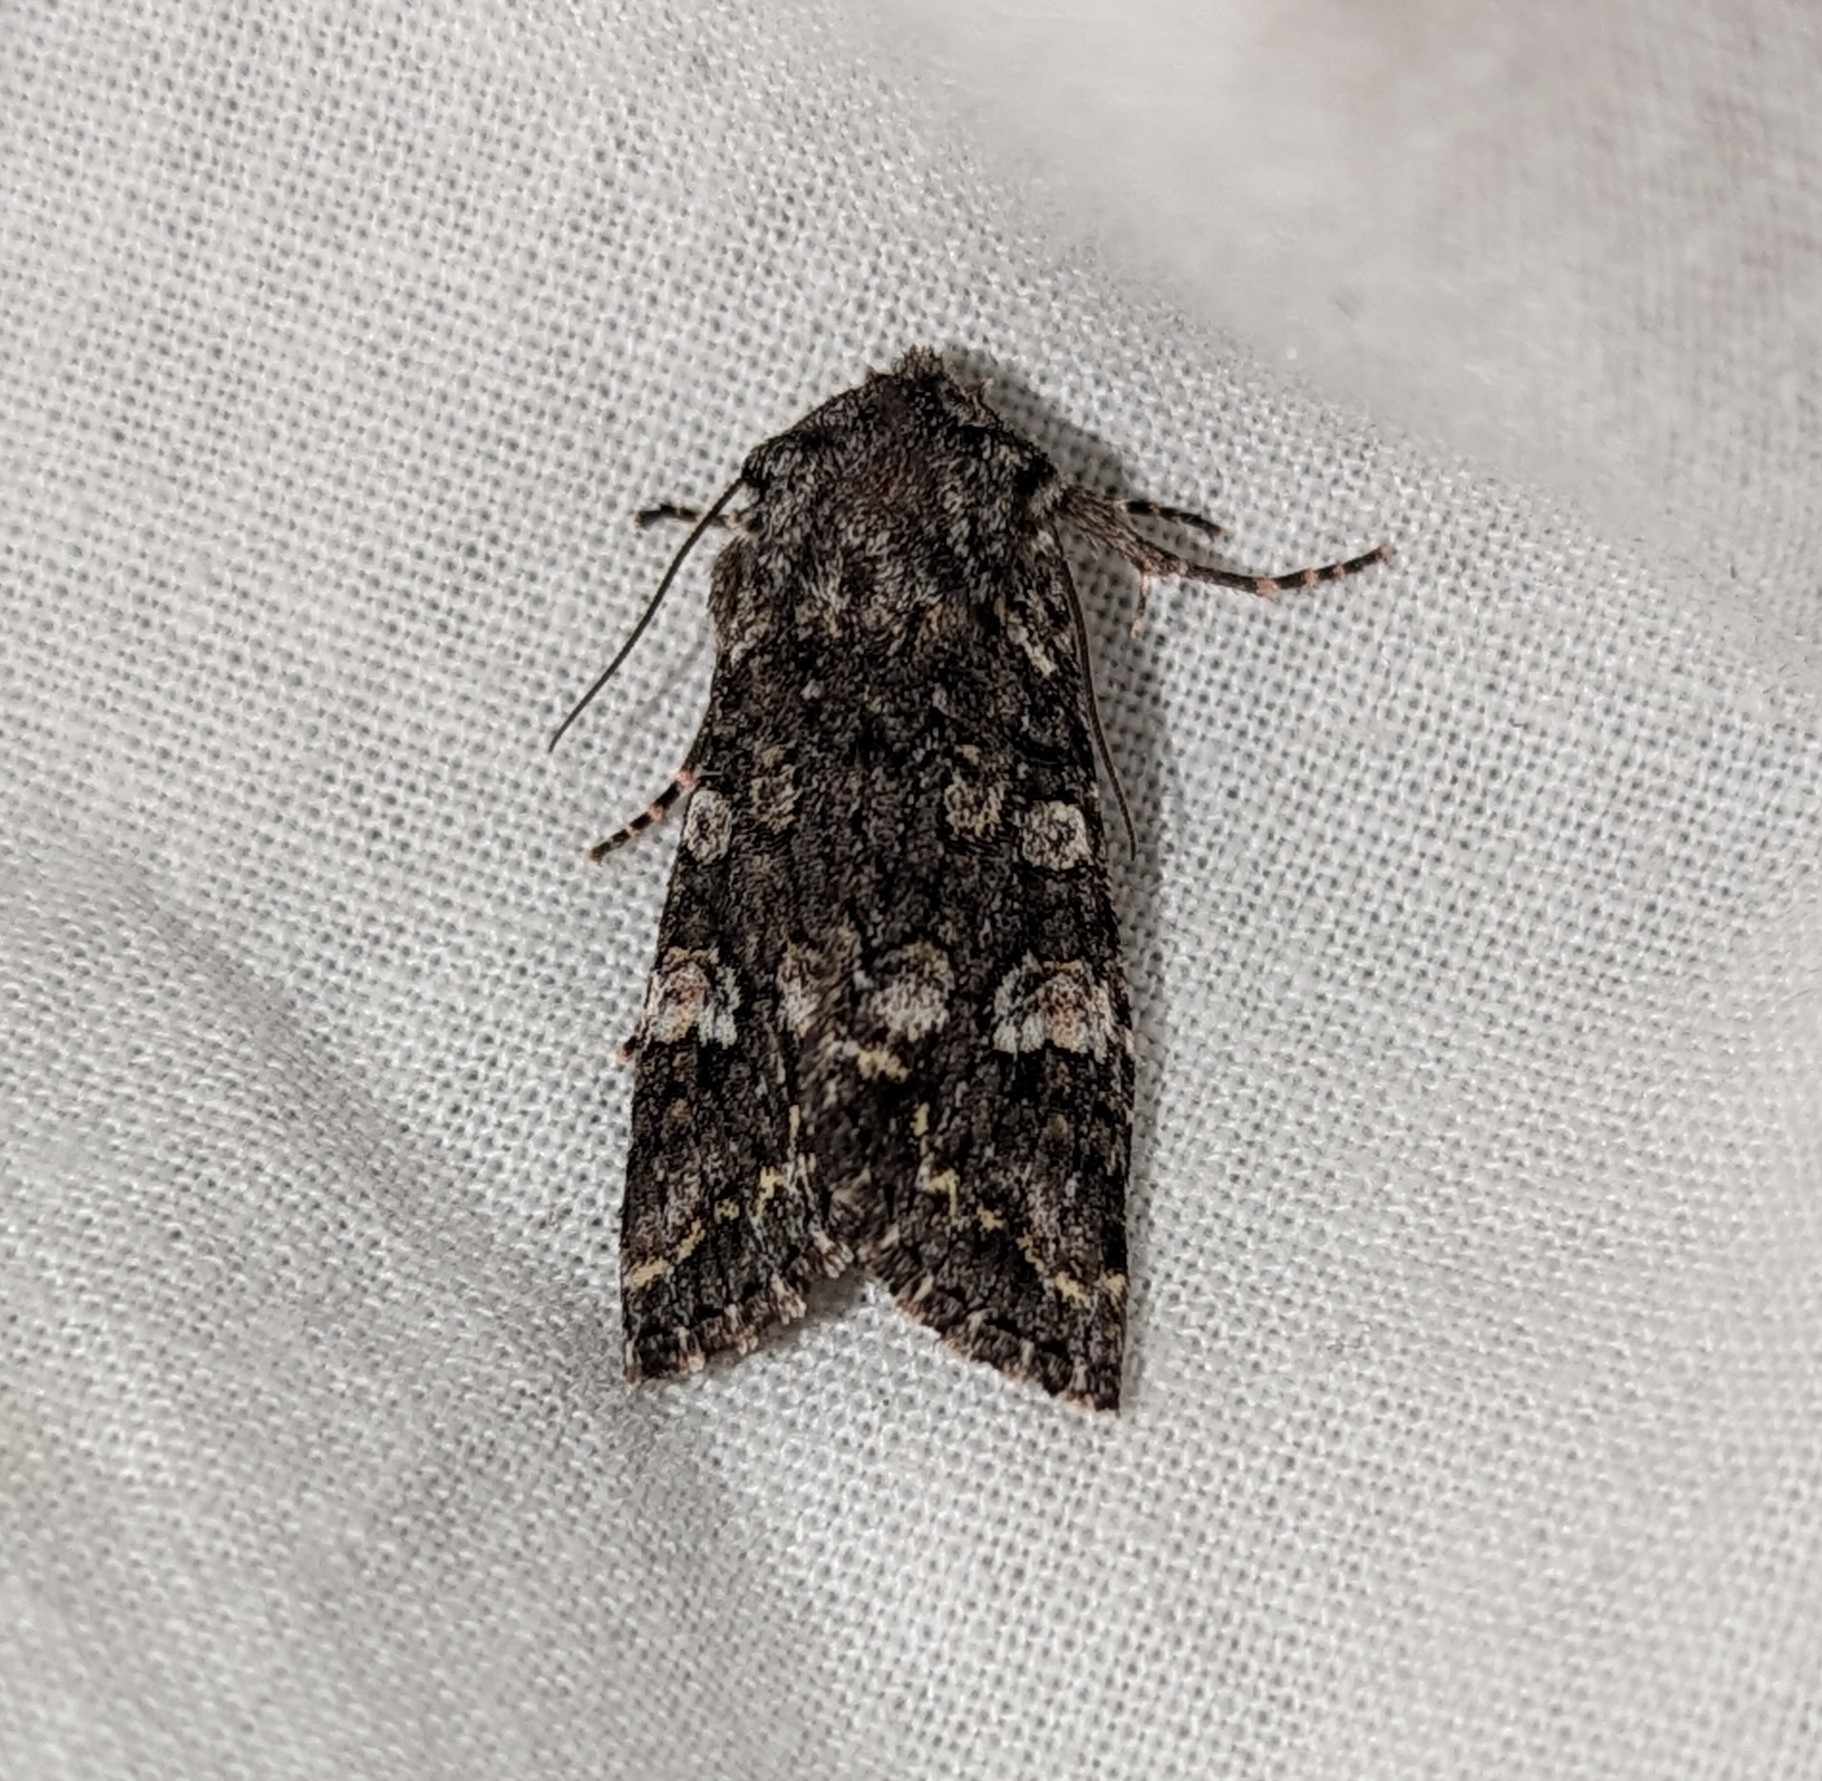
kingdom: Animalia
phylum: Arthropoda
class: Insecta
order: Lepidoptera
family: Noctuidae
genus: Egira
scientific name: Egira dolosa
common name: Lined black aspen cat.
